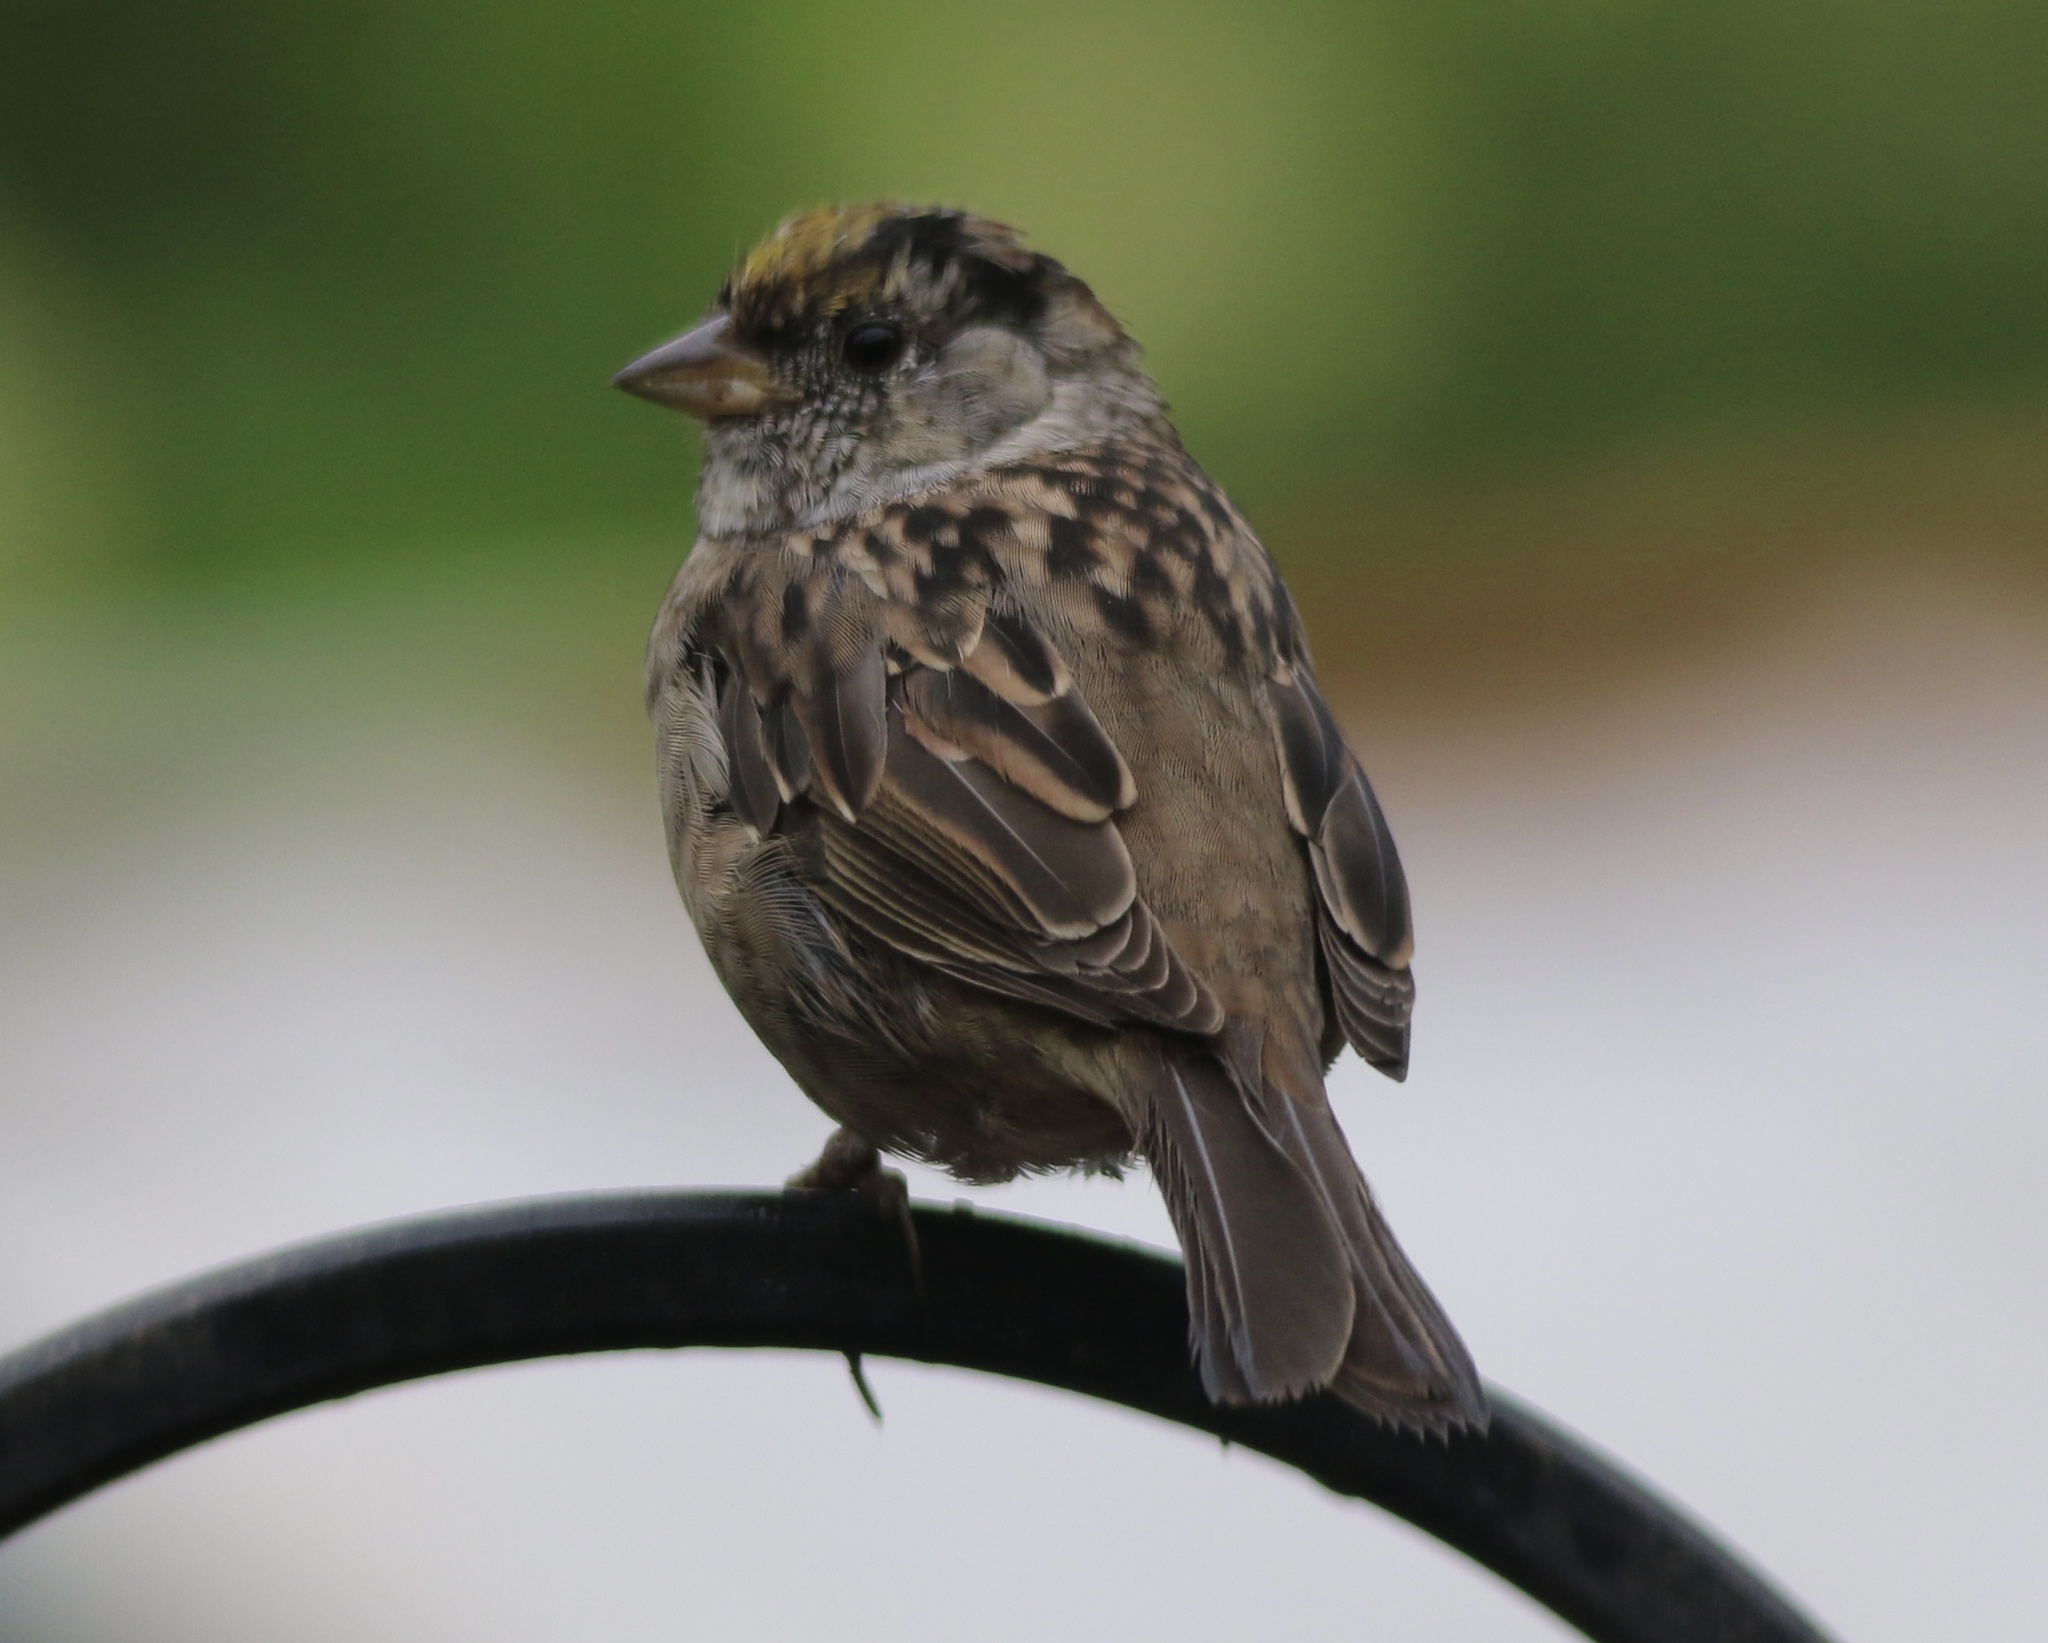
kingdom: Animalia
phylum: Chordata
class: Aves
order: Passeriformes
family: Passerellidae
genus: Zonotrichia
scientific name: Zonotrichia atricapilla
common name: Golden-crowned sparrow
